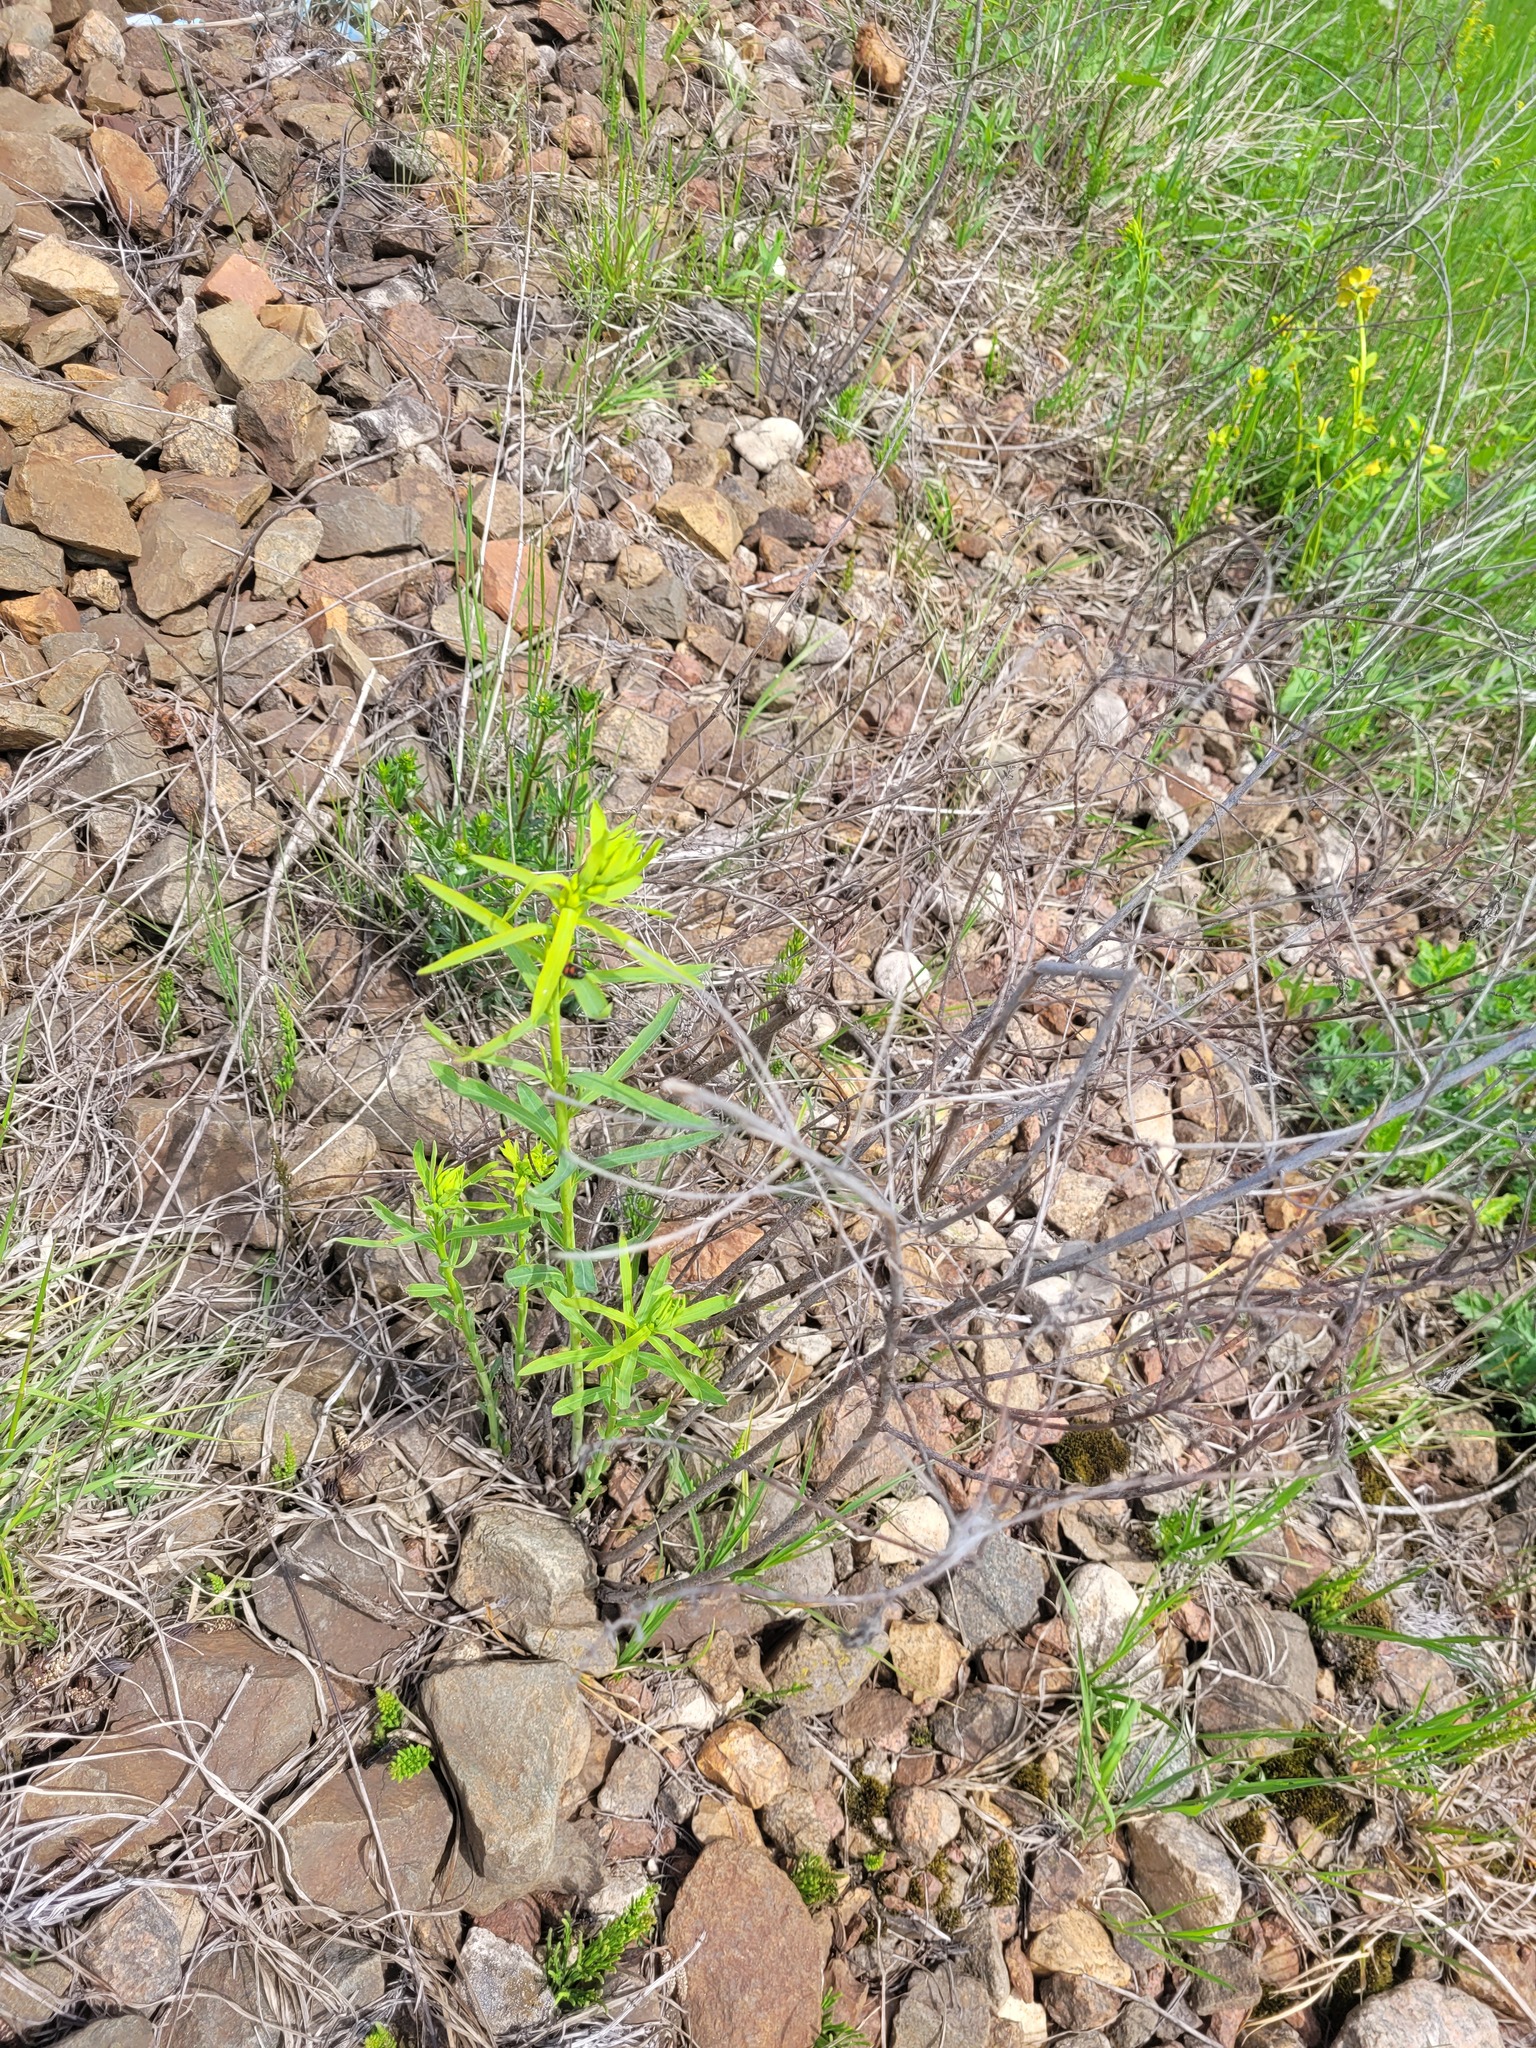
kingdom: Plantae
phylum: Tracheophyta
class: Magnoliopsida
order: Malpighiales
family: Euphorbiaceae
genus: Euphorbia
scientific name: Euphorbia virgata
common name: Leafy spurge
